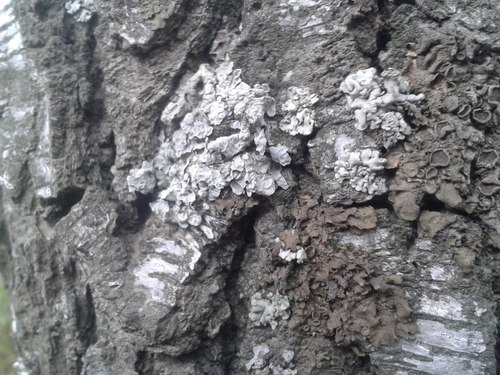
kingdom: Fungi
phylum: Ascomycota
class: Lecanoromycetes
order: Caliciales
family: Physciaceae
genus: Physcia
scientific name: Physcia
